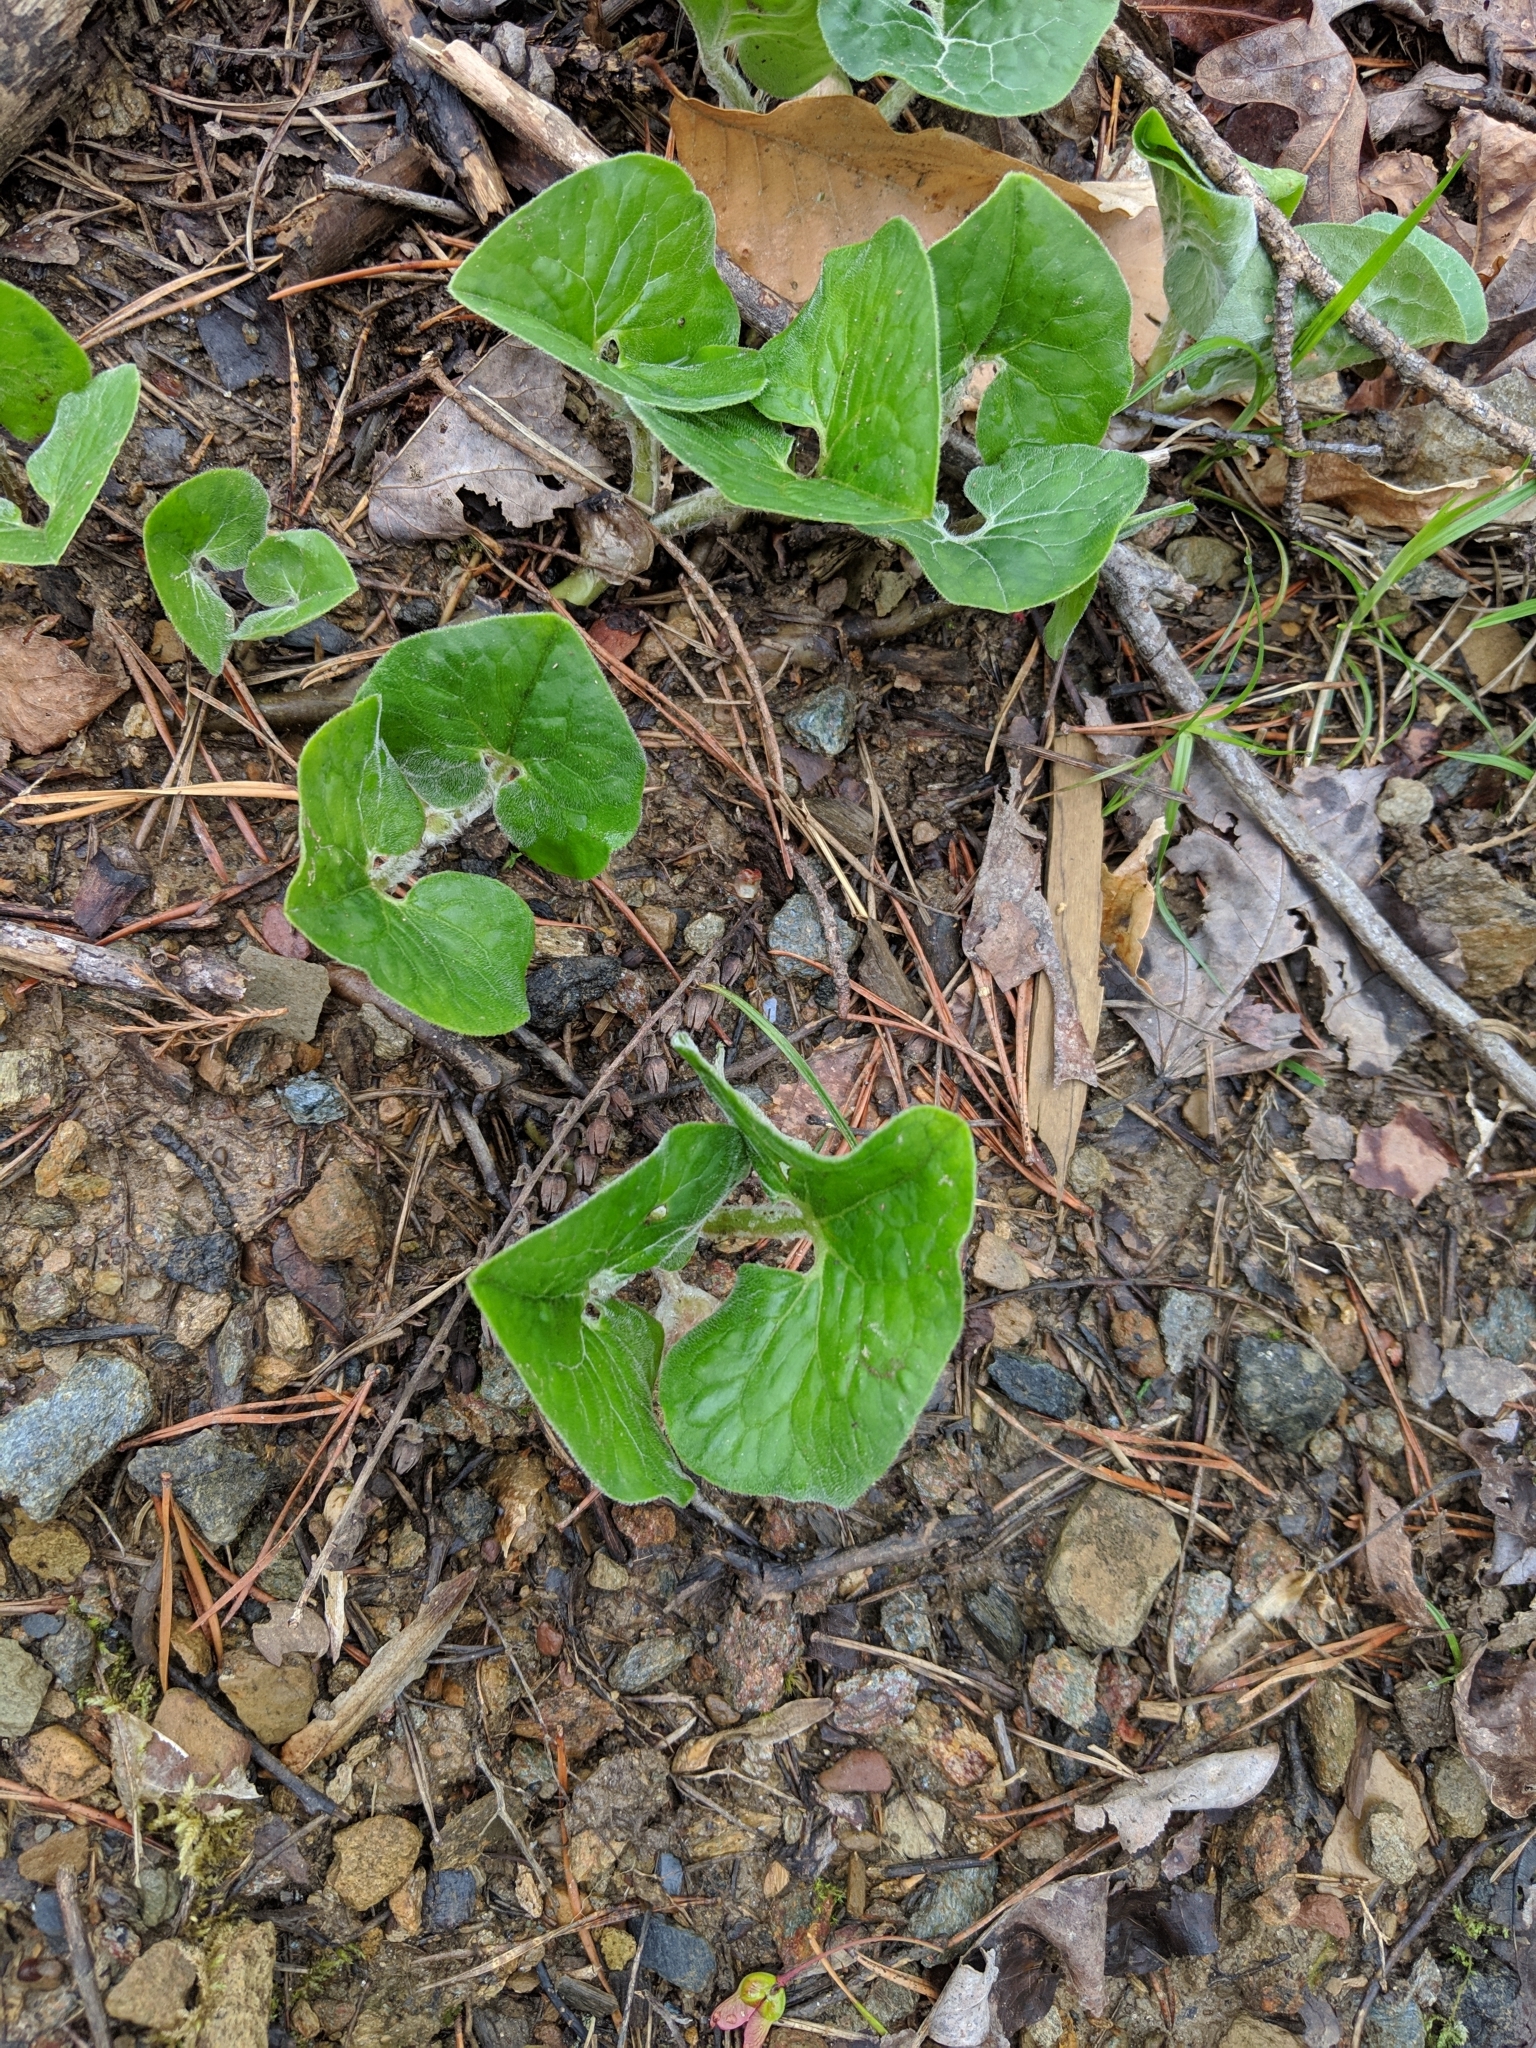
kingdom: Plantae
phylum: Tracheophyta
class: Magnoliopsida
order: Piperales
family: Aristolochiaceae
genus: Asarum
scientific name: Asarum canadense
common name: Wild ginger
